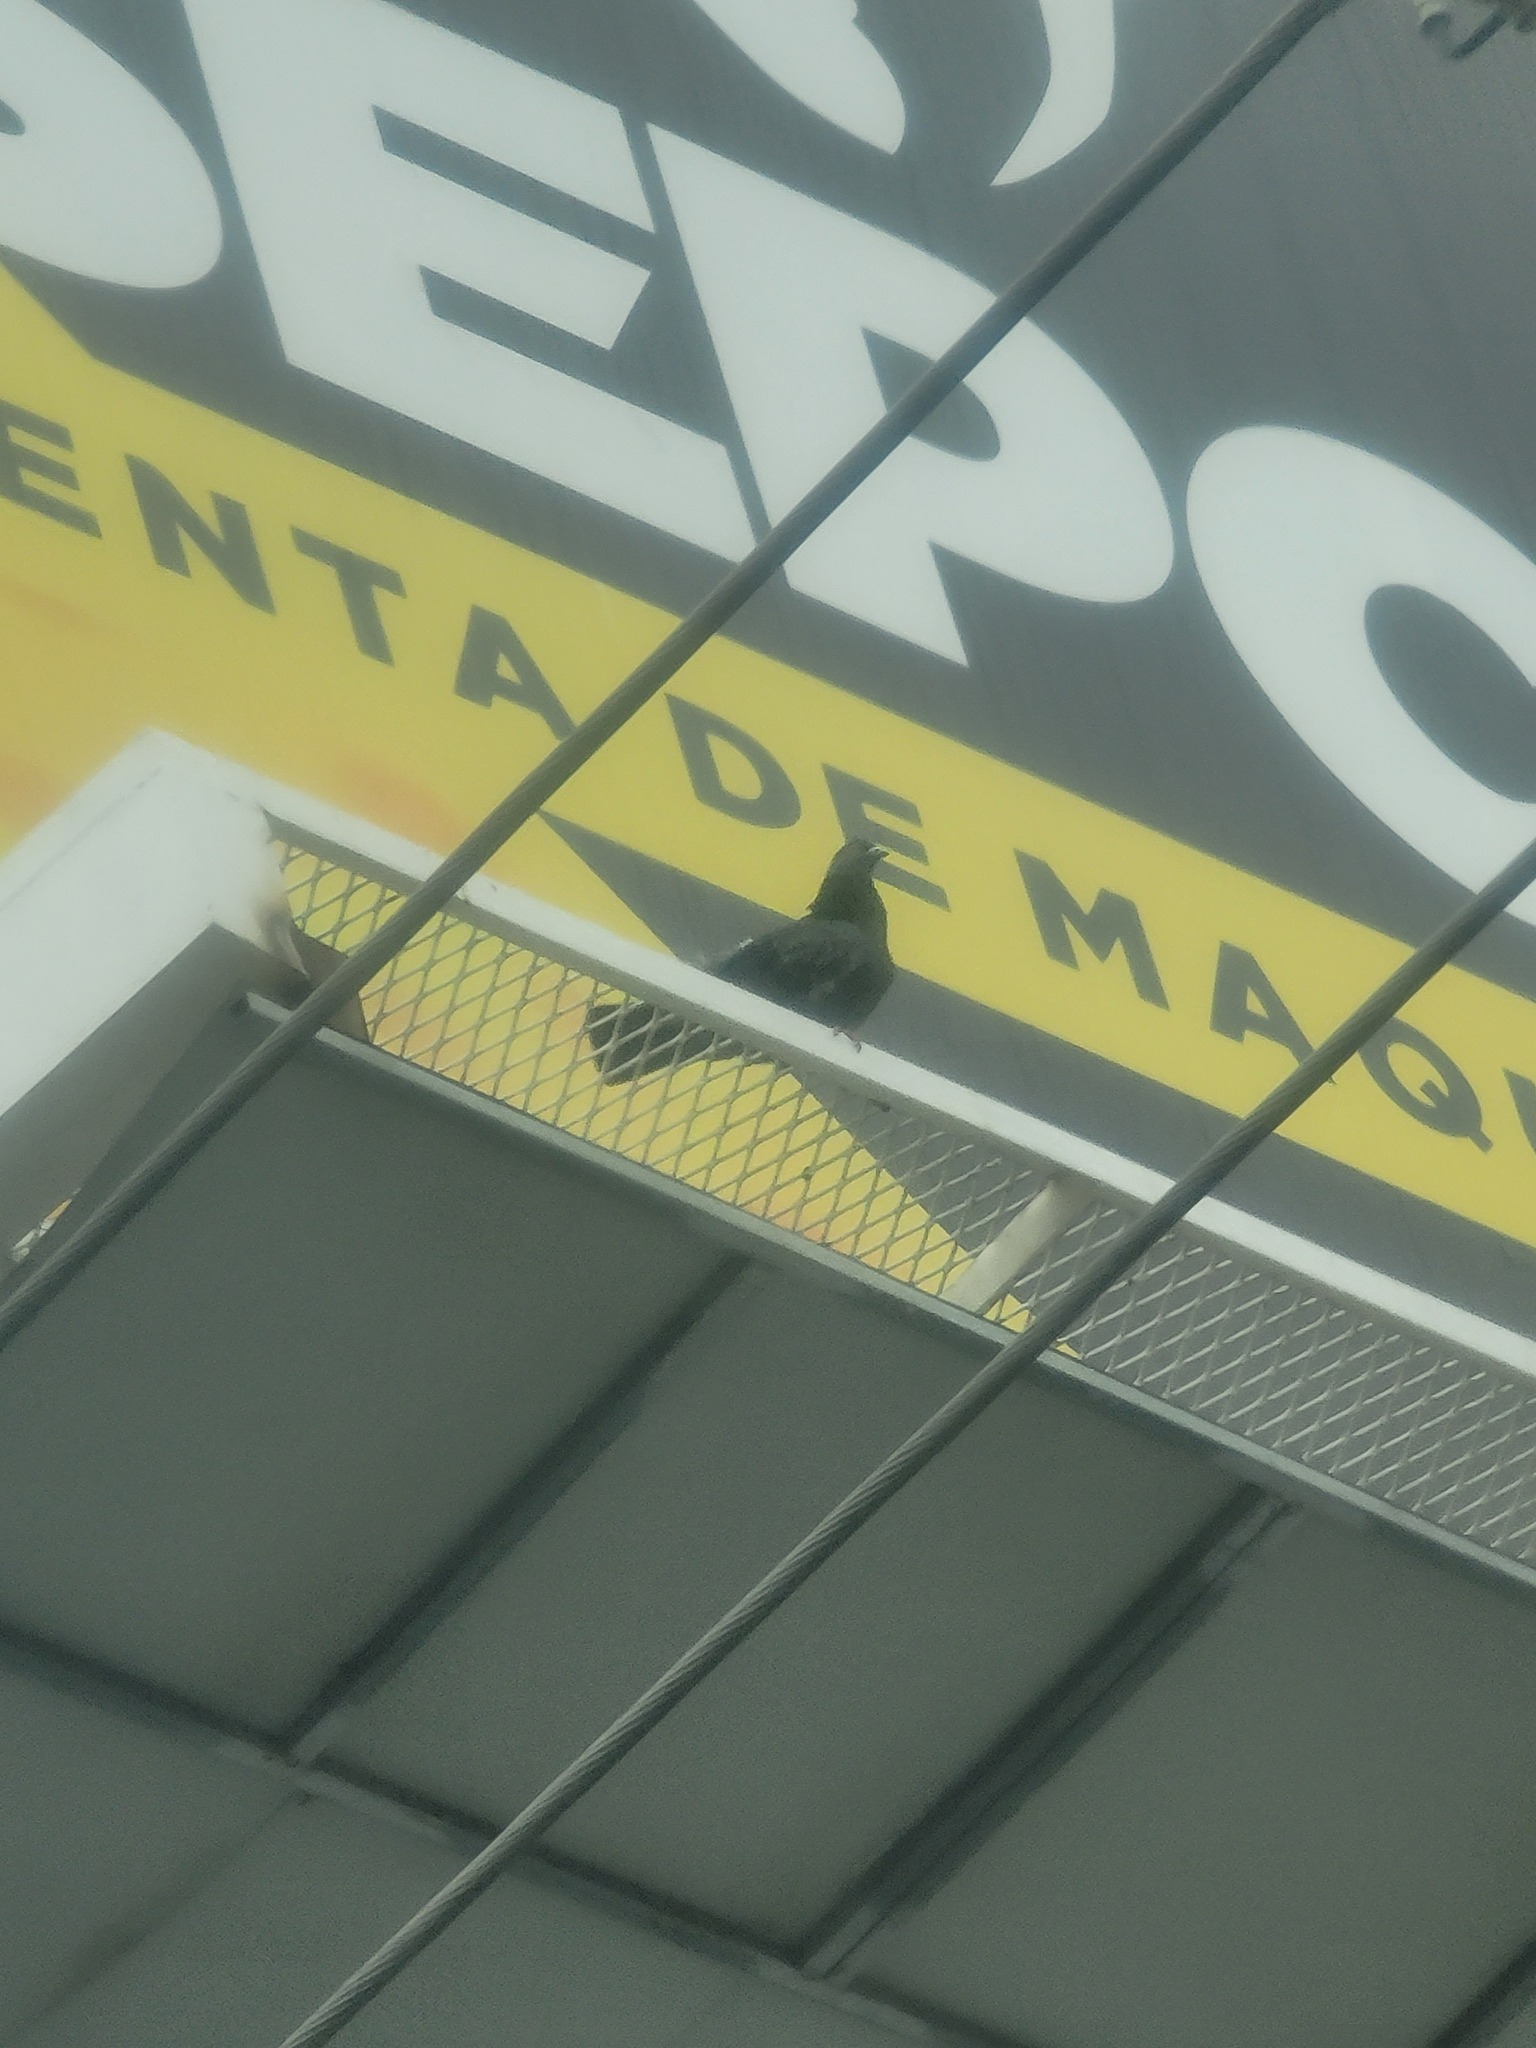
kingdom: Animalia
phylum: Chordata
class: Aves
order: Columbiformes
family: Columbidae
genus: Columba
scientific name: Columba livia
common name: Rock pigeon
